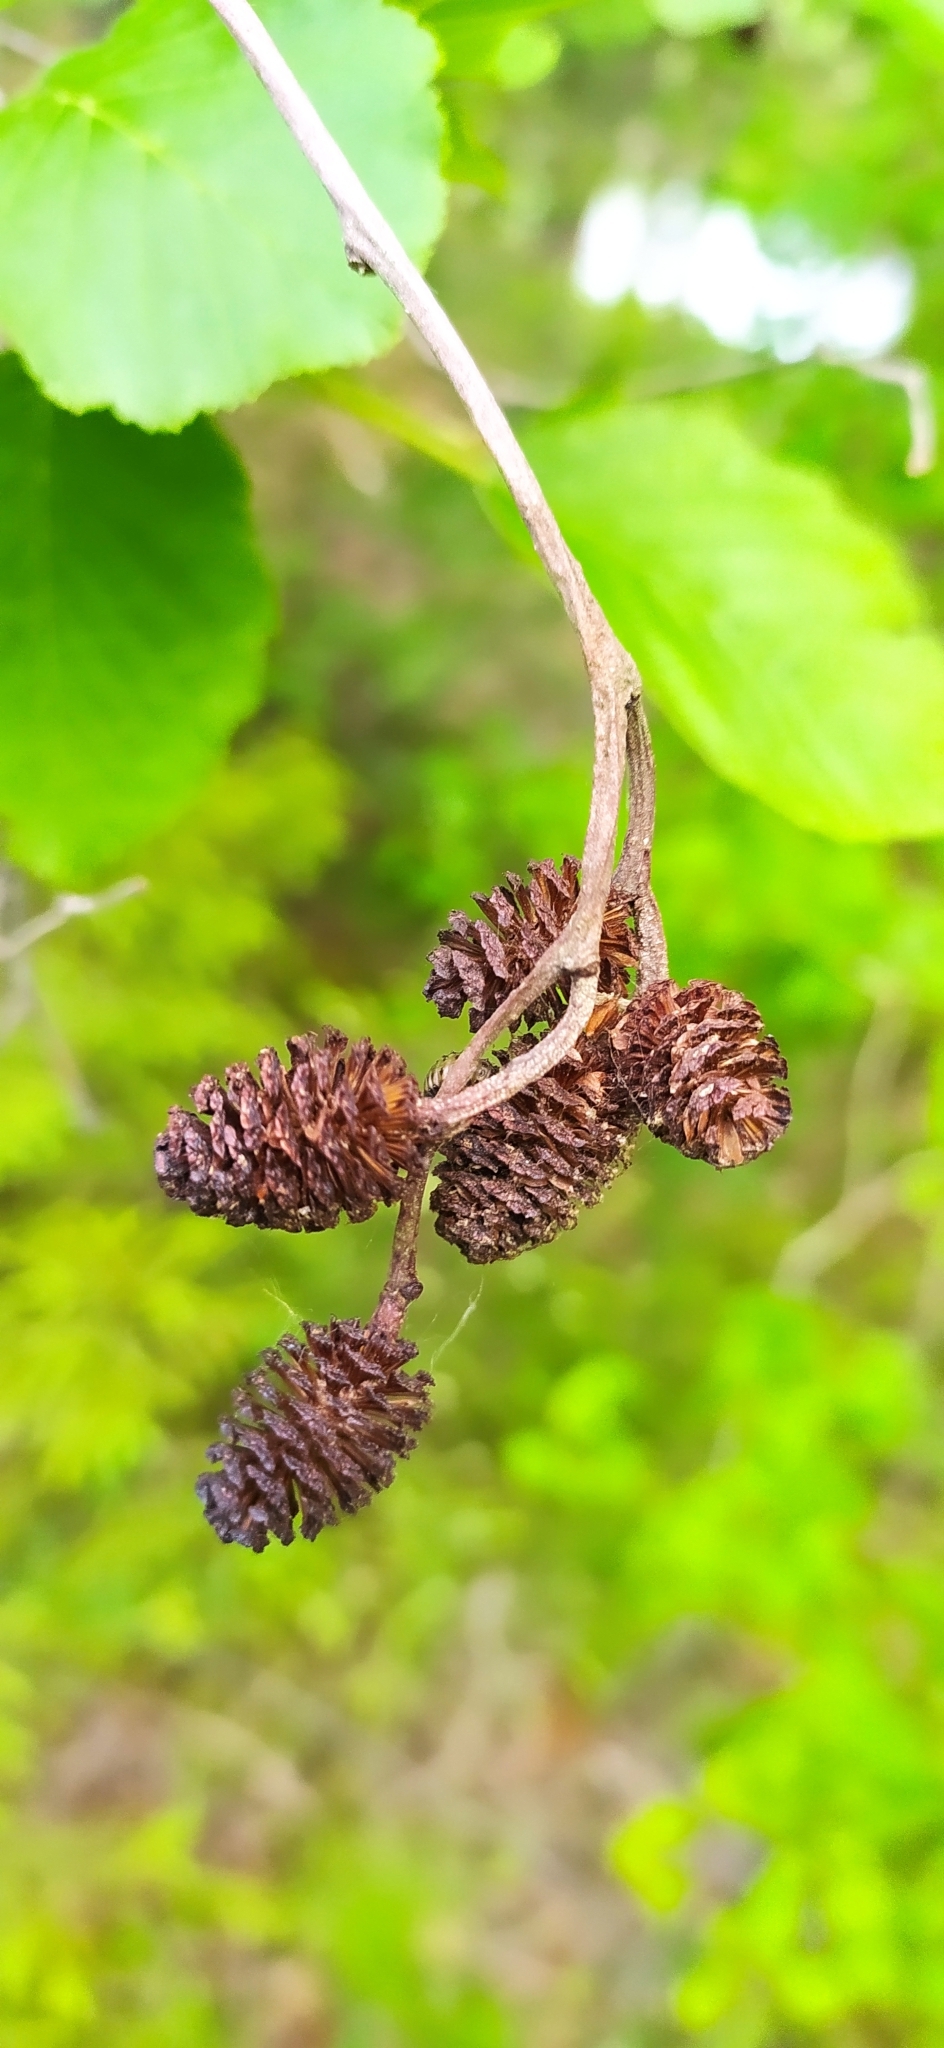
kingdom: Plantae
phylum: Tracheophyta
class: Magnoliopsida
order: Fagales
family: Betulaceae
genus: Alnus
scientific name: Alnus incana
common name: Grey alder
